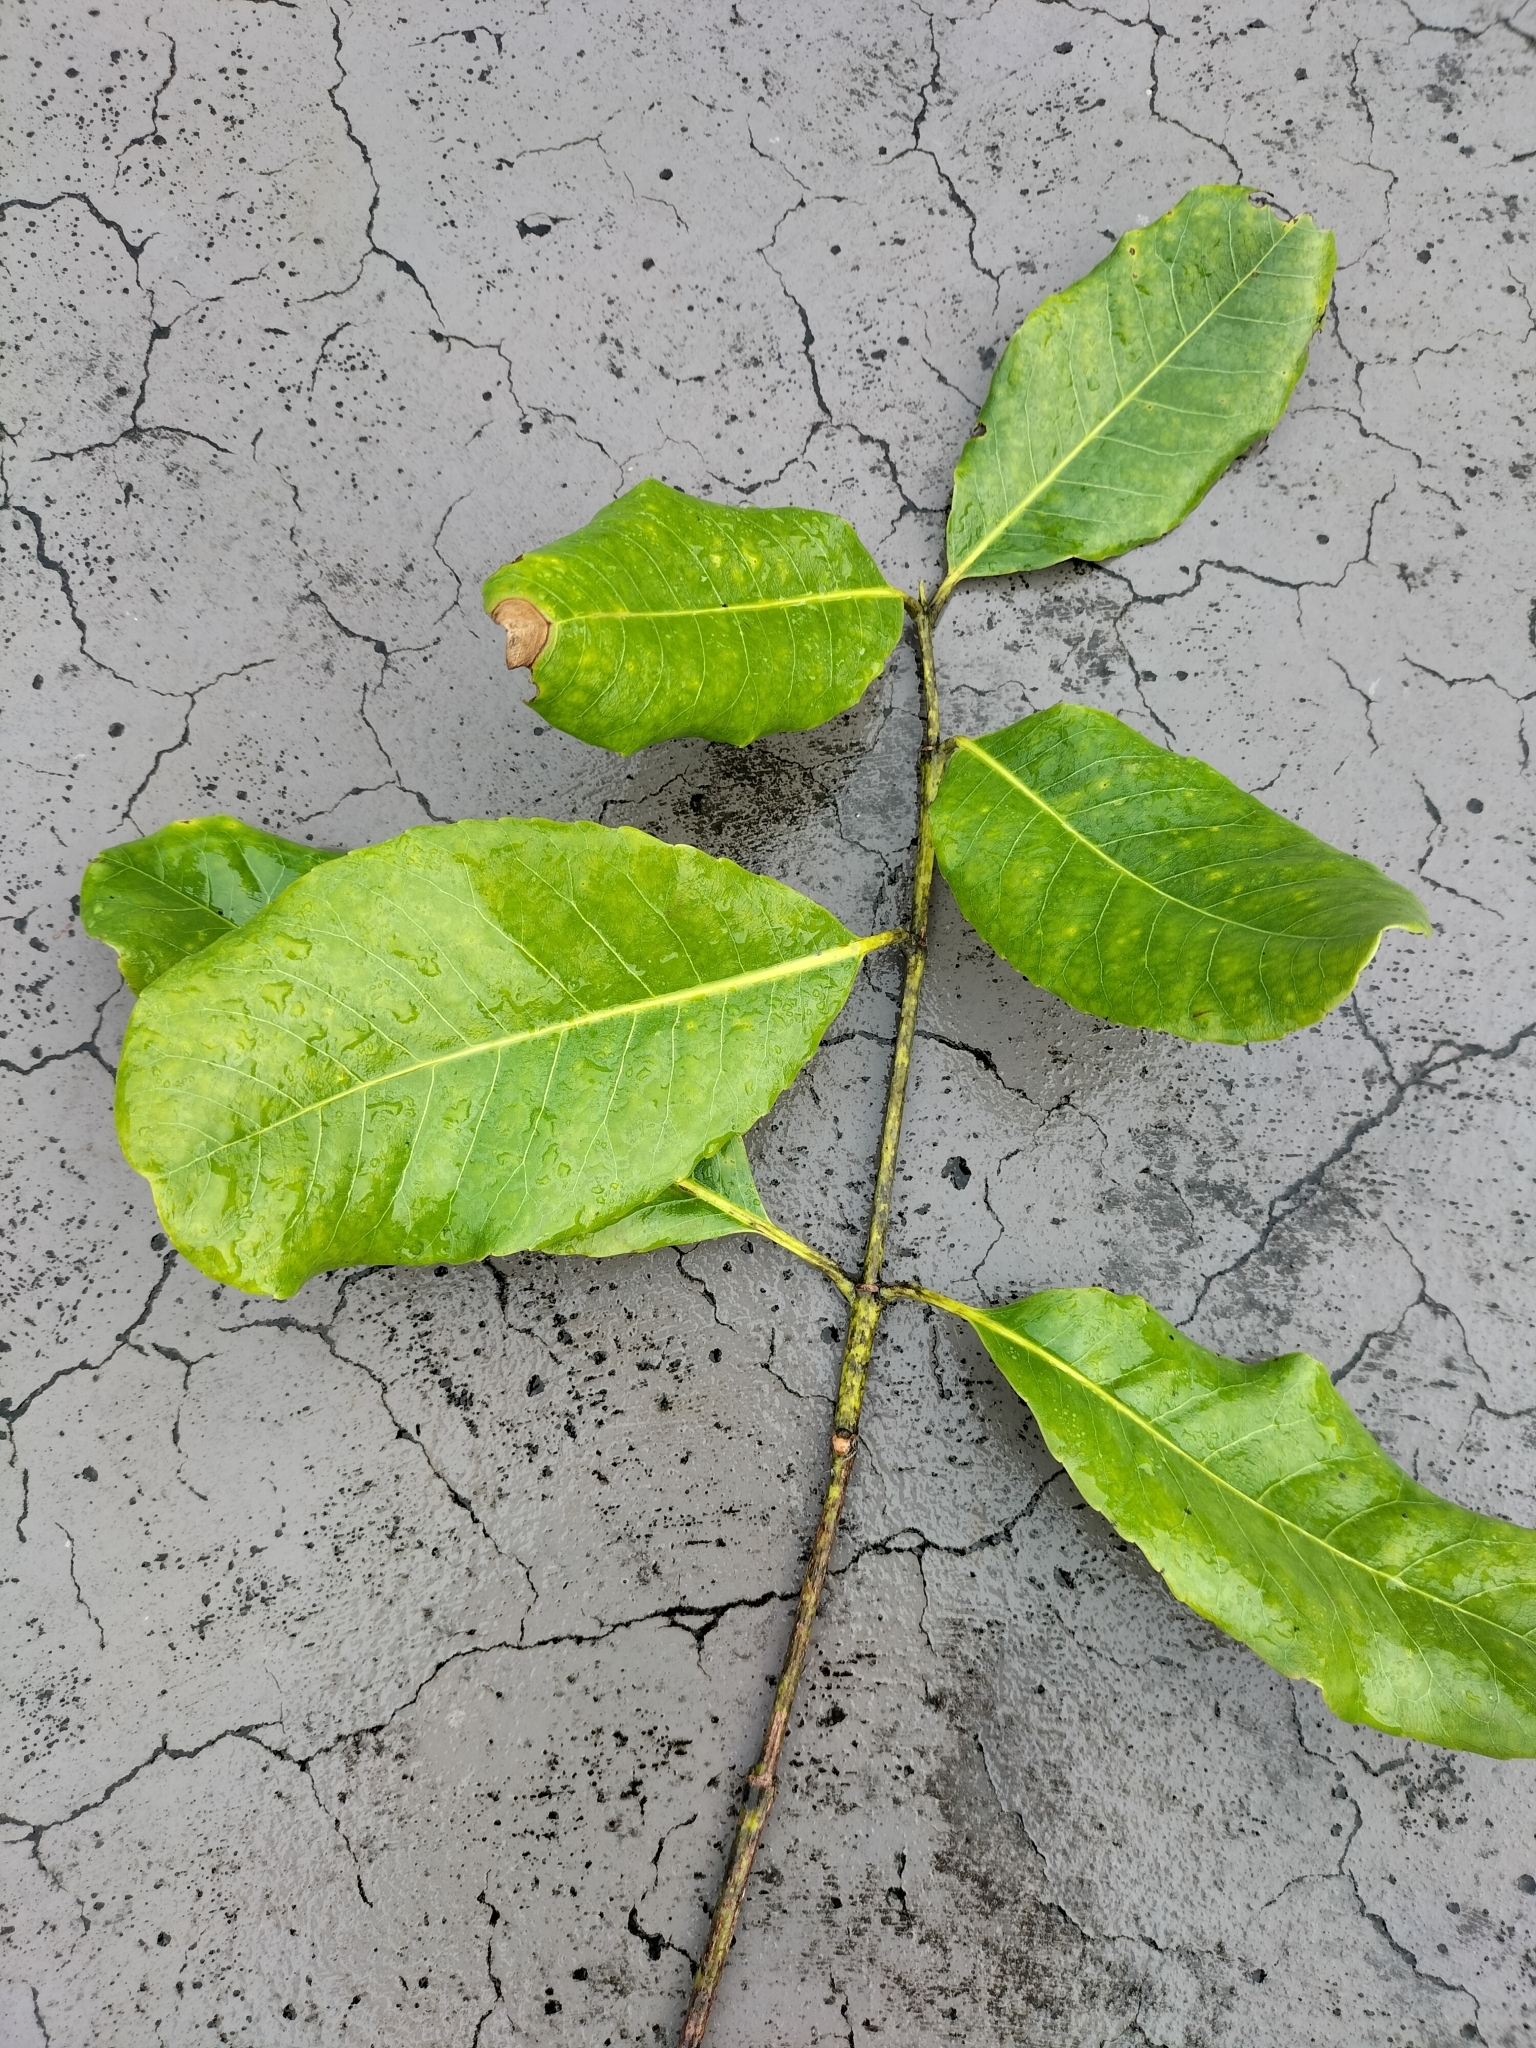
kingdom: Plantae
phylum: Tracheophyta
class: Magnoliopsida
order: Oxalidales
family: Cunoniaceae
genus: Schizomeria
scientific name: Schizomeria whitei
